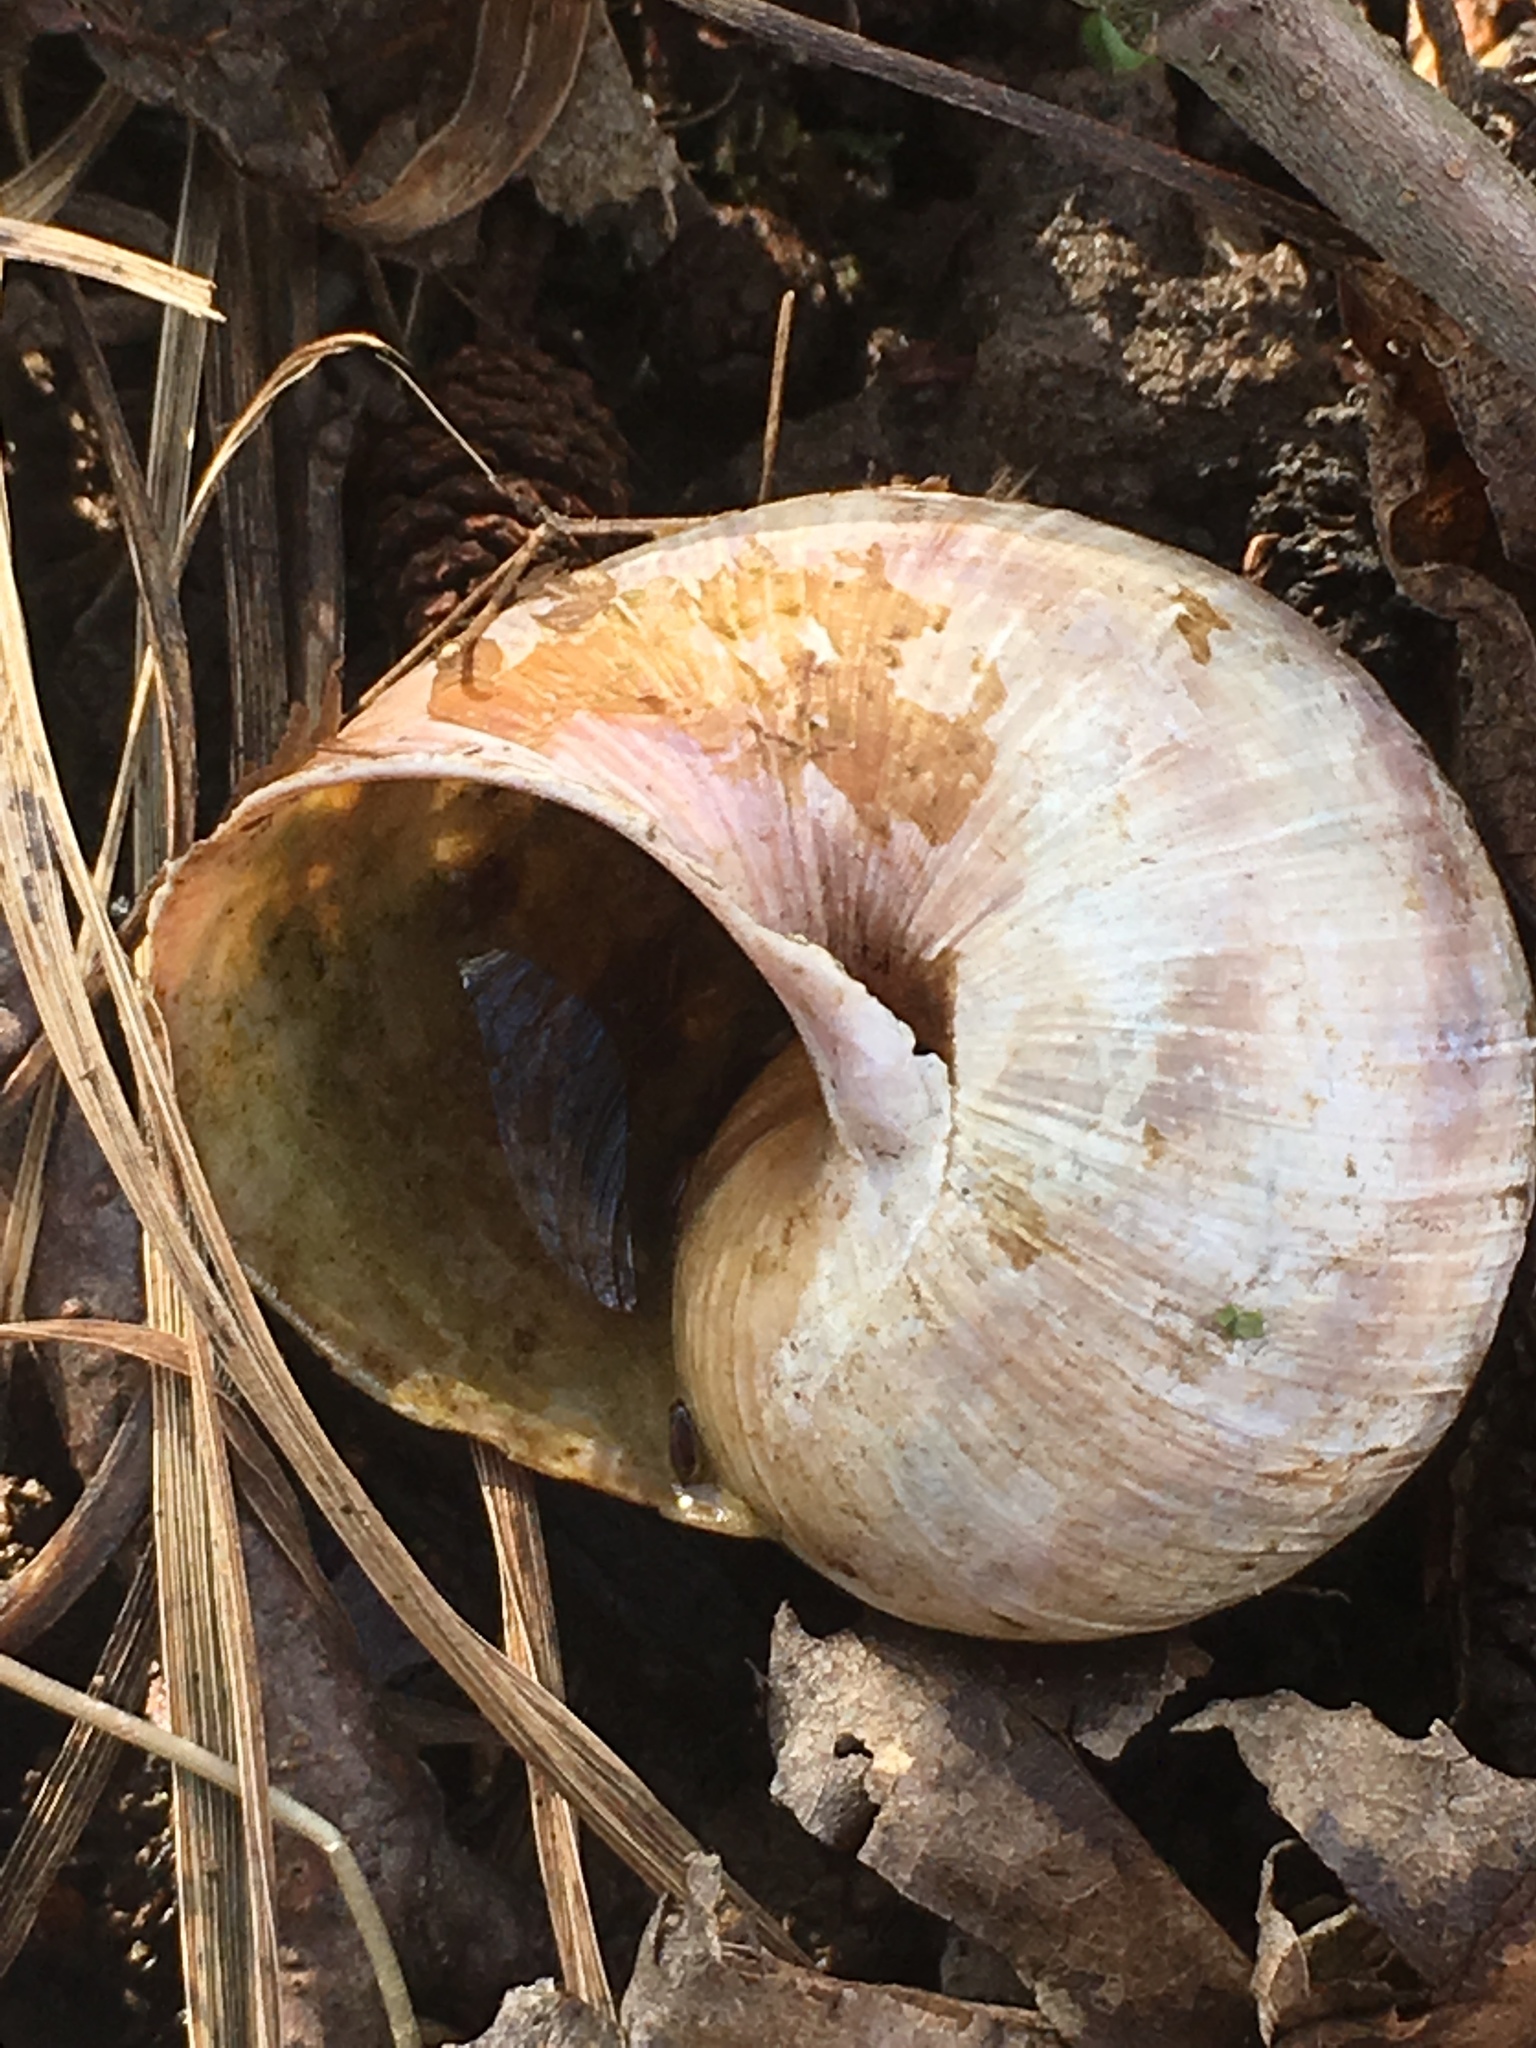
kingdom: Animalia
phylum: Mollusca
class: Gastropoda
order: Stylommatophora
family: Helicidae
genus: Helix
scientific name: Helix pomatia
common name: Roman snail
